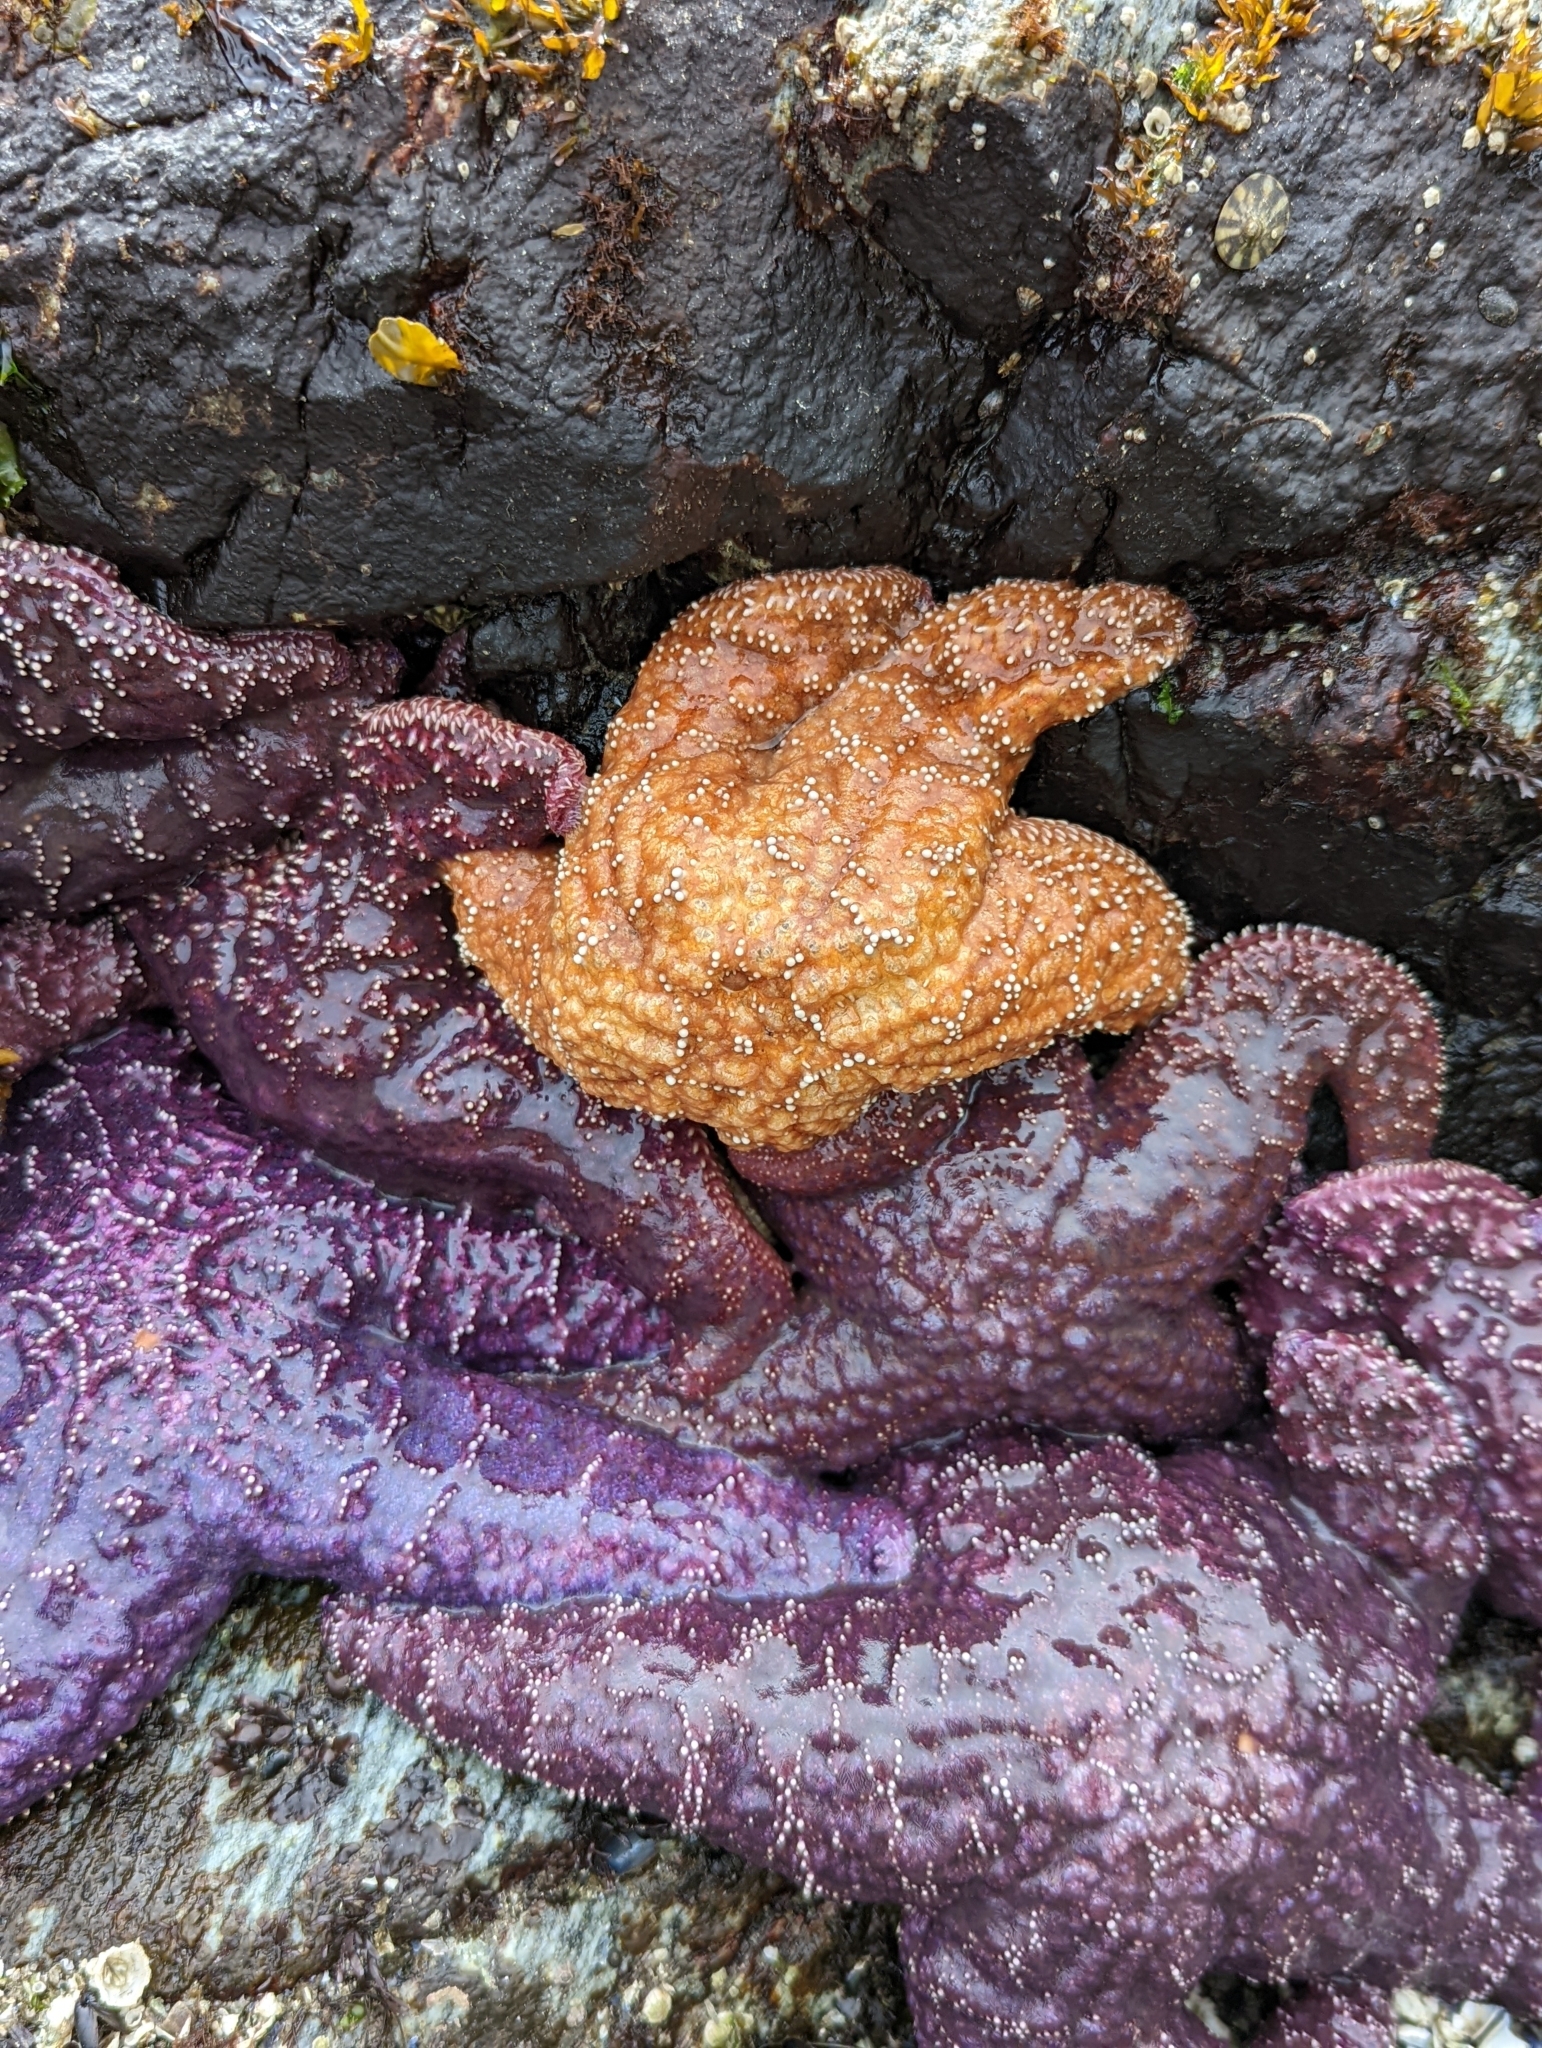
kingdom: Animalia
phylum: Echinodermata
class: Asteroidea
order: Forcipulatida
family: Asteriidae
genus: Pisaster
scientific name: Pisaster ochraceus
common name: Ochre stars
